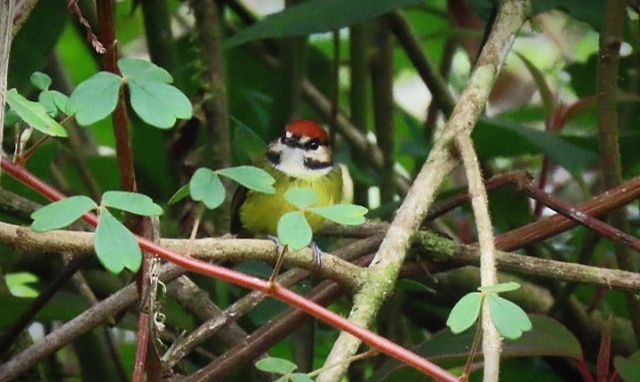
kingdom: Animalia
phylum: Chordata
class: Aves
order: Passeriformes
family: Tyrannidae
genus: Poecilotriccus
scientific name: Poecilotriccus ruficeps
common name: Rufous-crowned tody-flycatcher
